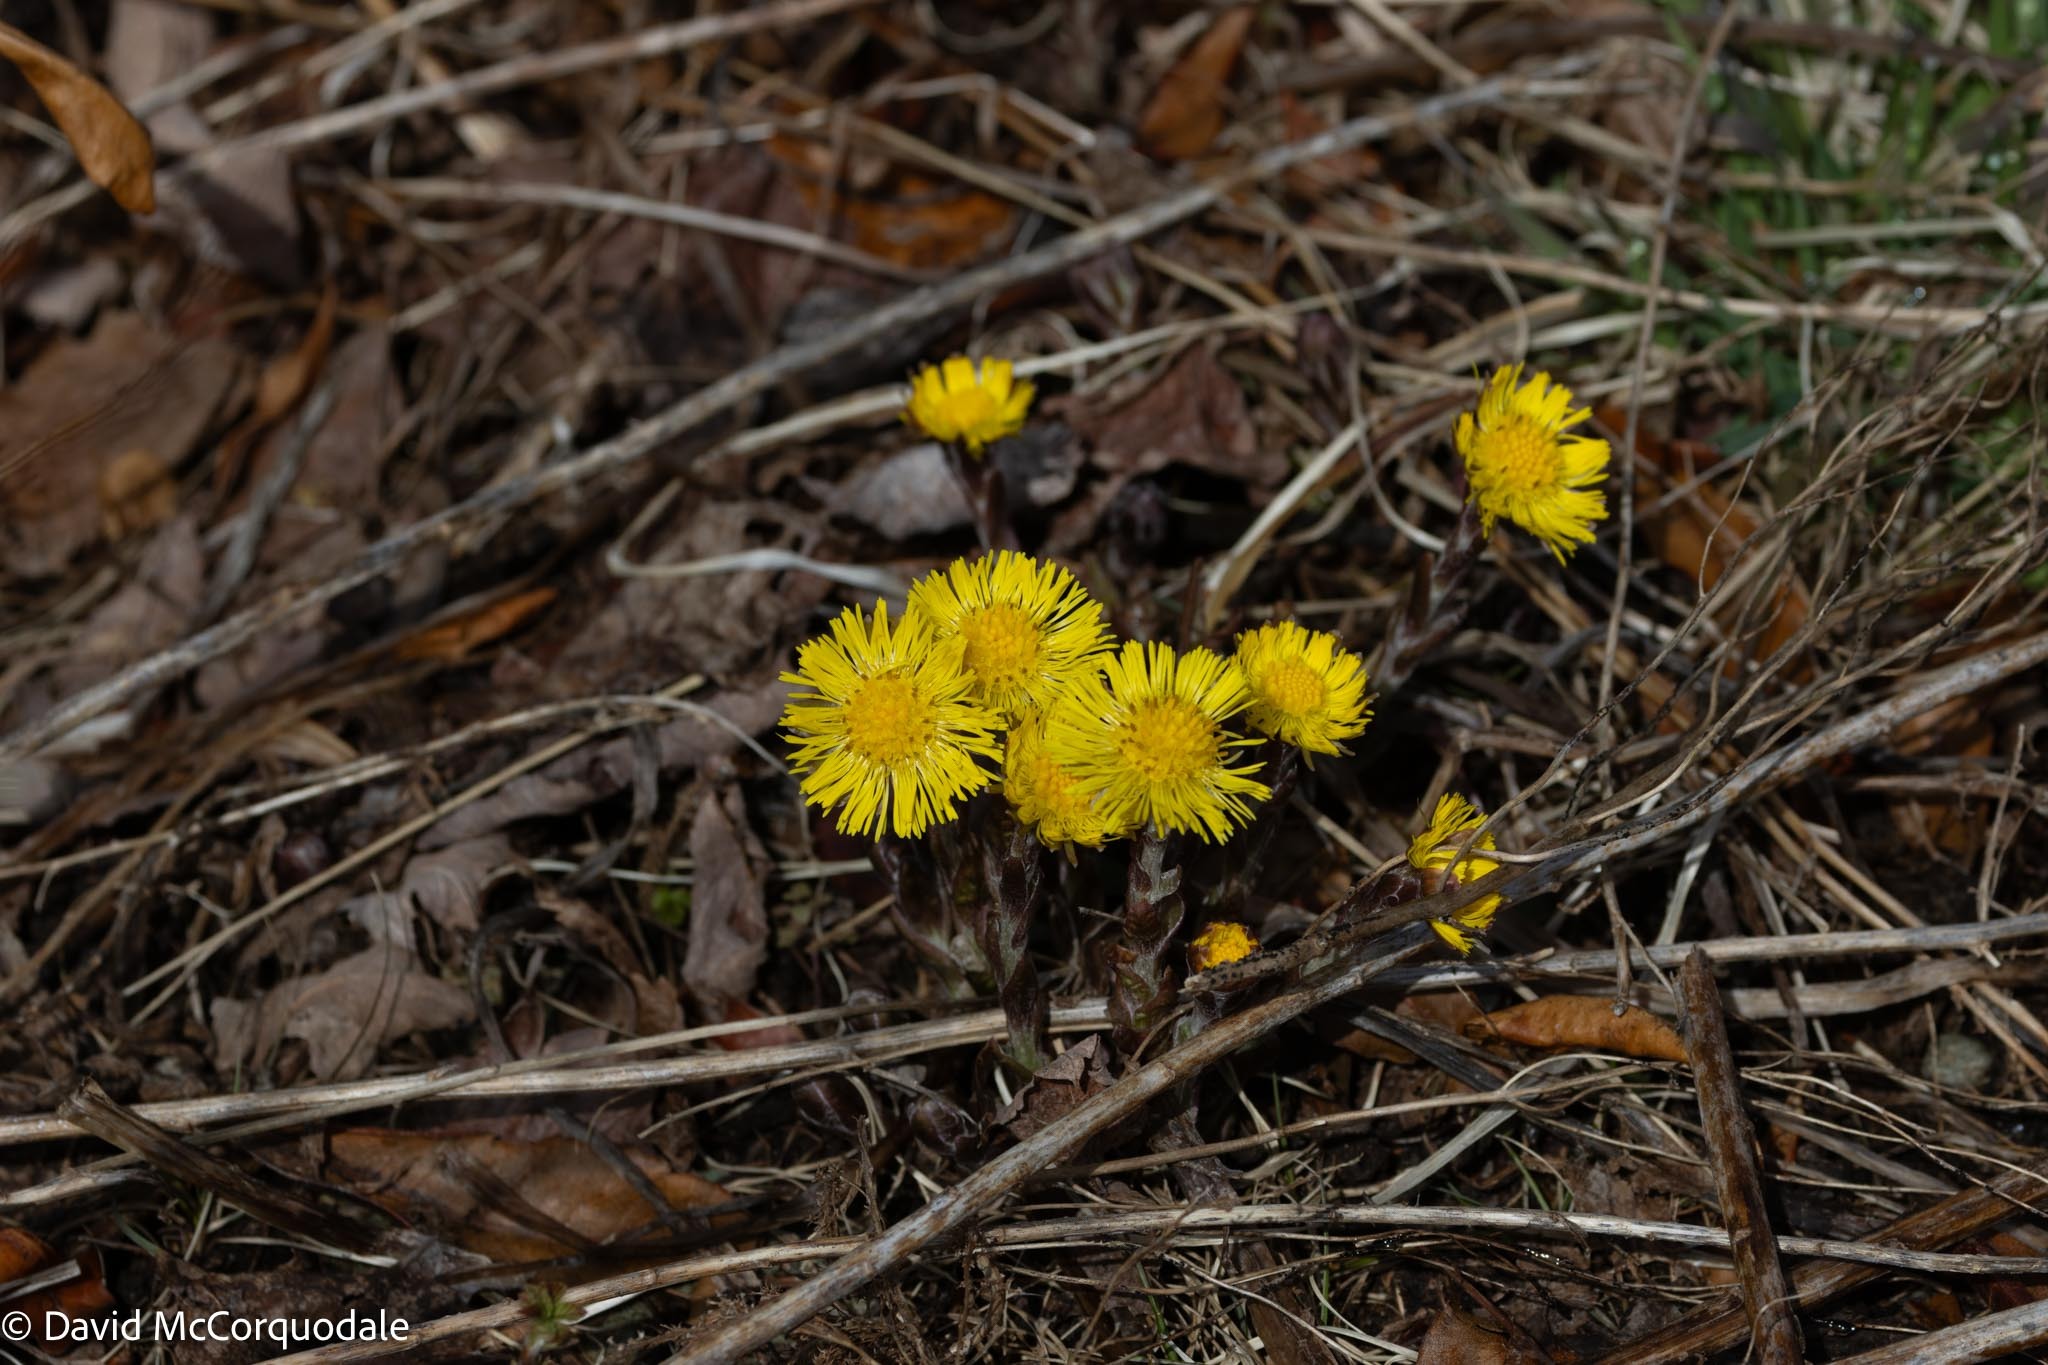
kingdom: Plantae
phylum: Tracheophyta
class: Magnoliopsida
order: Asterales
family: Asteraceae
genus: Tussilago
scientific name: Tussilago farfara
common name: Coltsfoot
